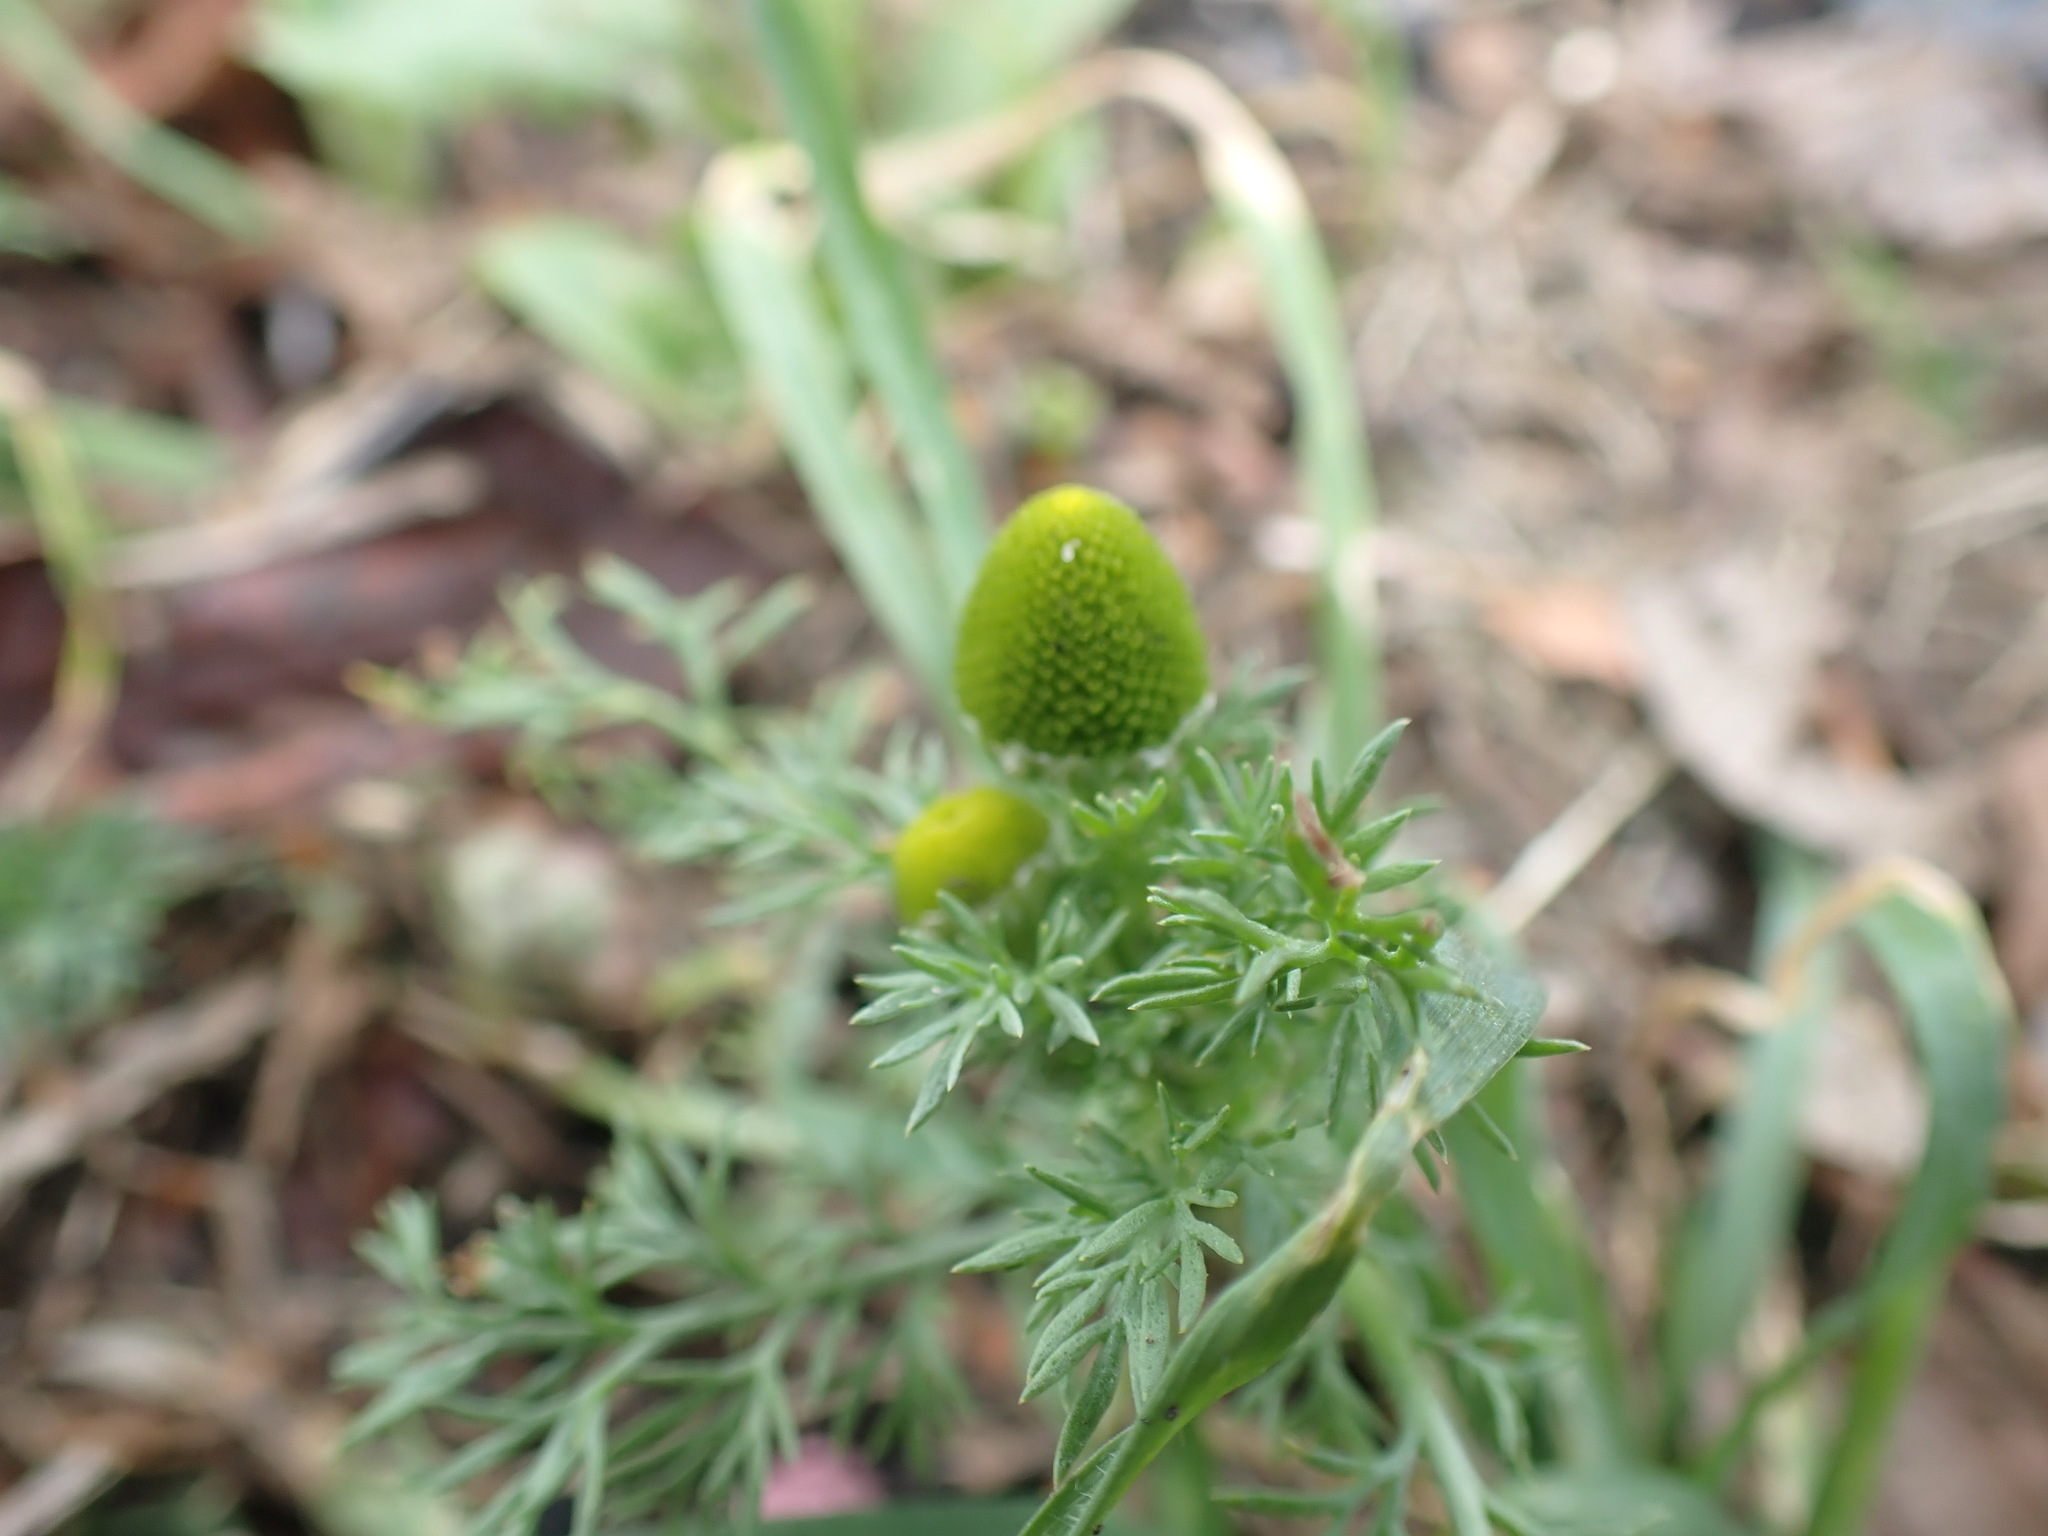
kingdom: Plantae
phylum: Tracheophyta
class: Magnoliopsida
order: Asterales
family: Asteraceae
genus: Matricaria
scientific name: Matricaria discoidea
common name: Disc mayweed
